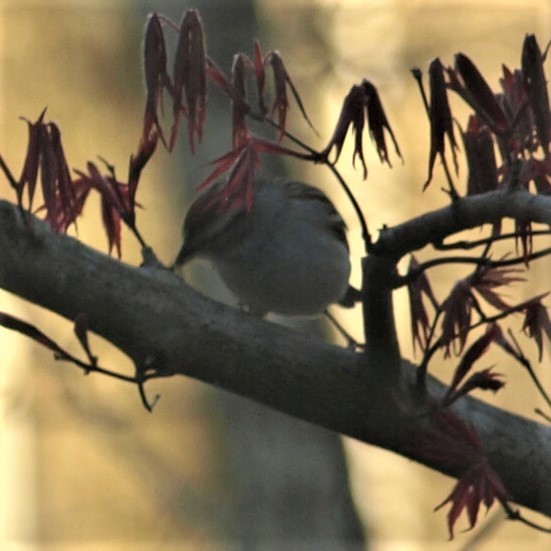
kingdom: Animalia
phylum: Chordata
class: Aves
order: Passeriformes
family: Passerellidae
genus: Spizella
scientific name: Spizella passerina
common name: Chipping sparrow
